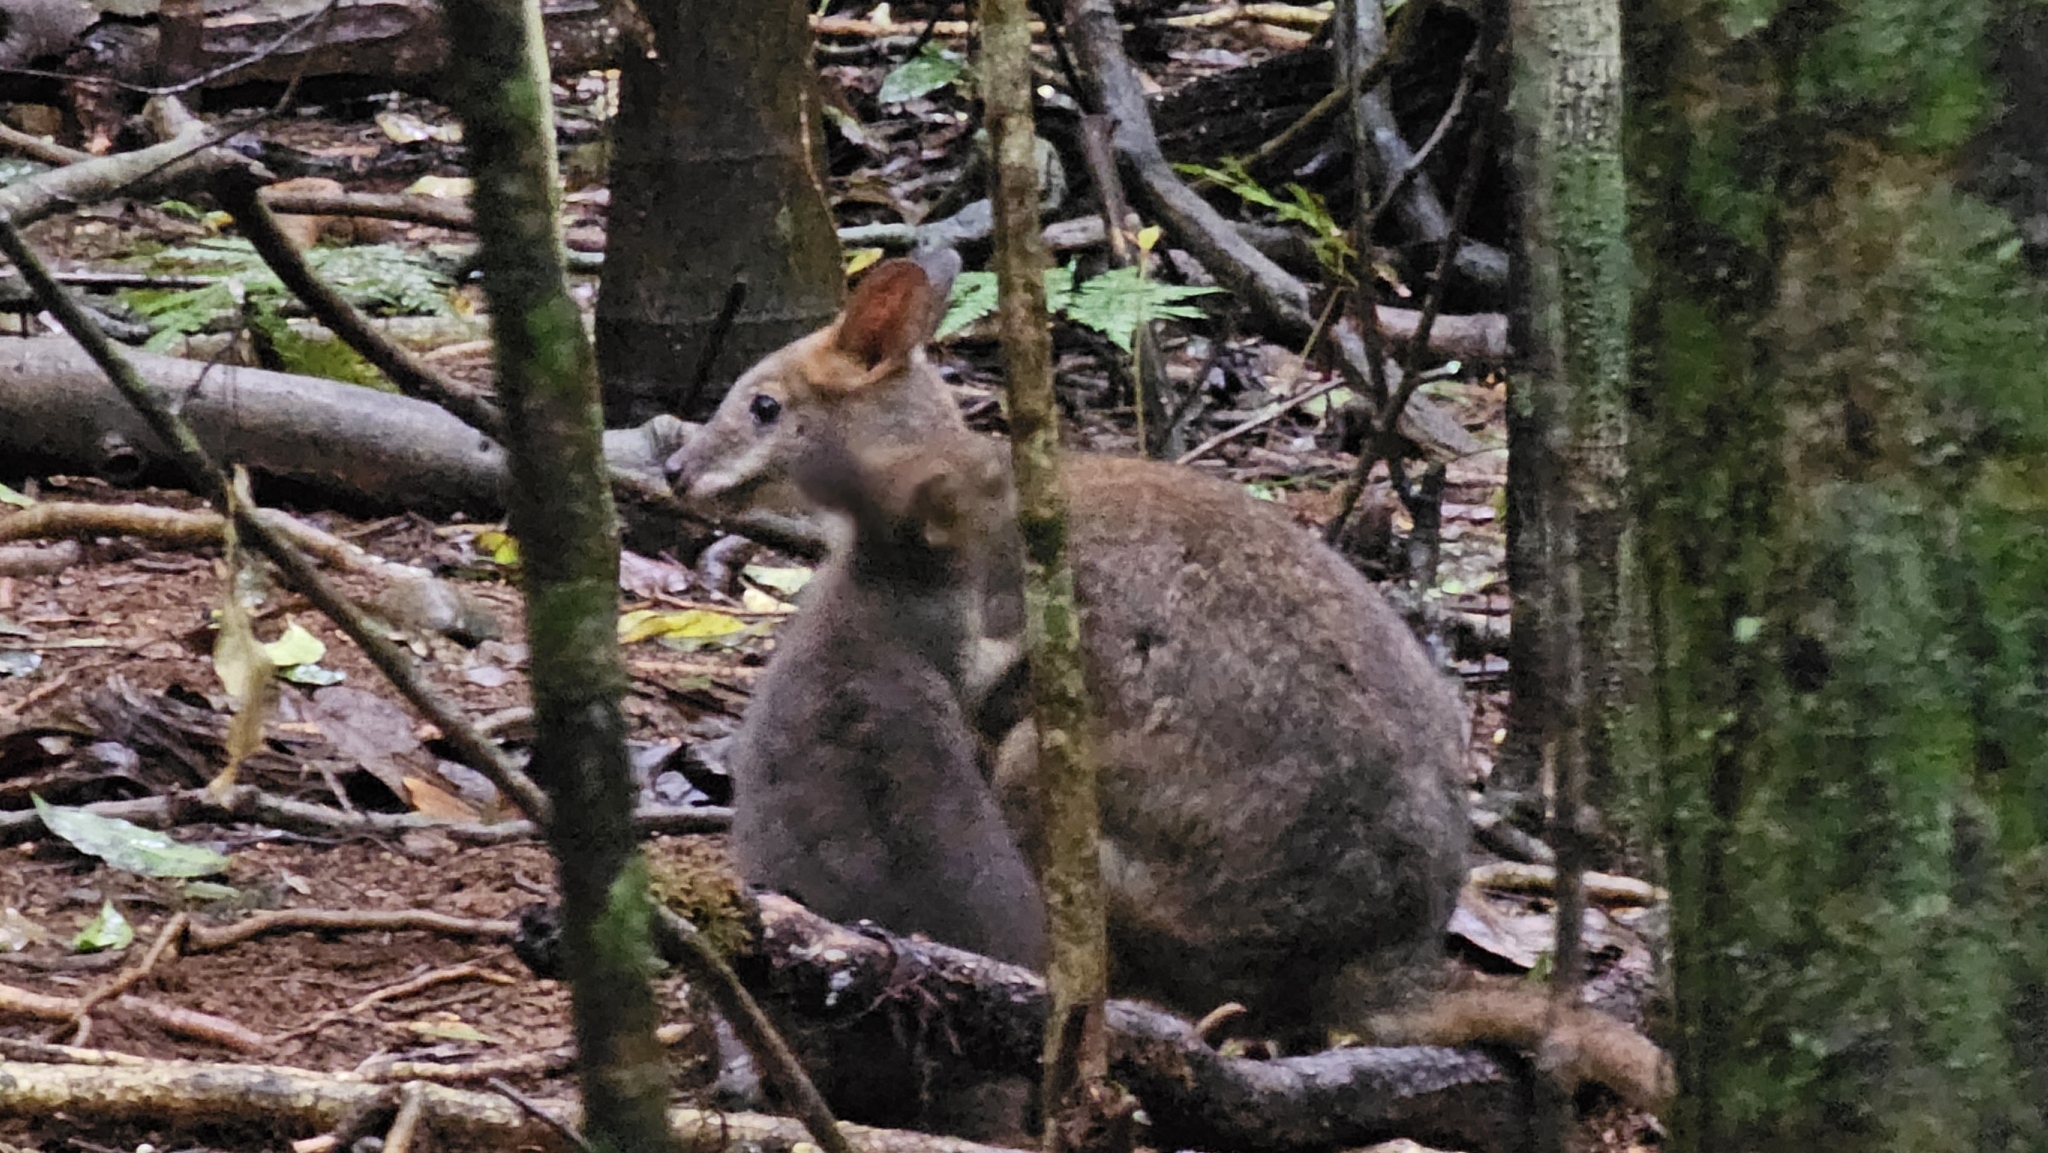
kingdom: Animalia
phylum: Chordata
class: Mammalia
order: Diprotodontia
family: Macropodidae
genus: Thylogale
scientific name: Thylogale stigmatica
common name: Red-legged pademelon
